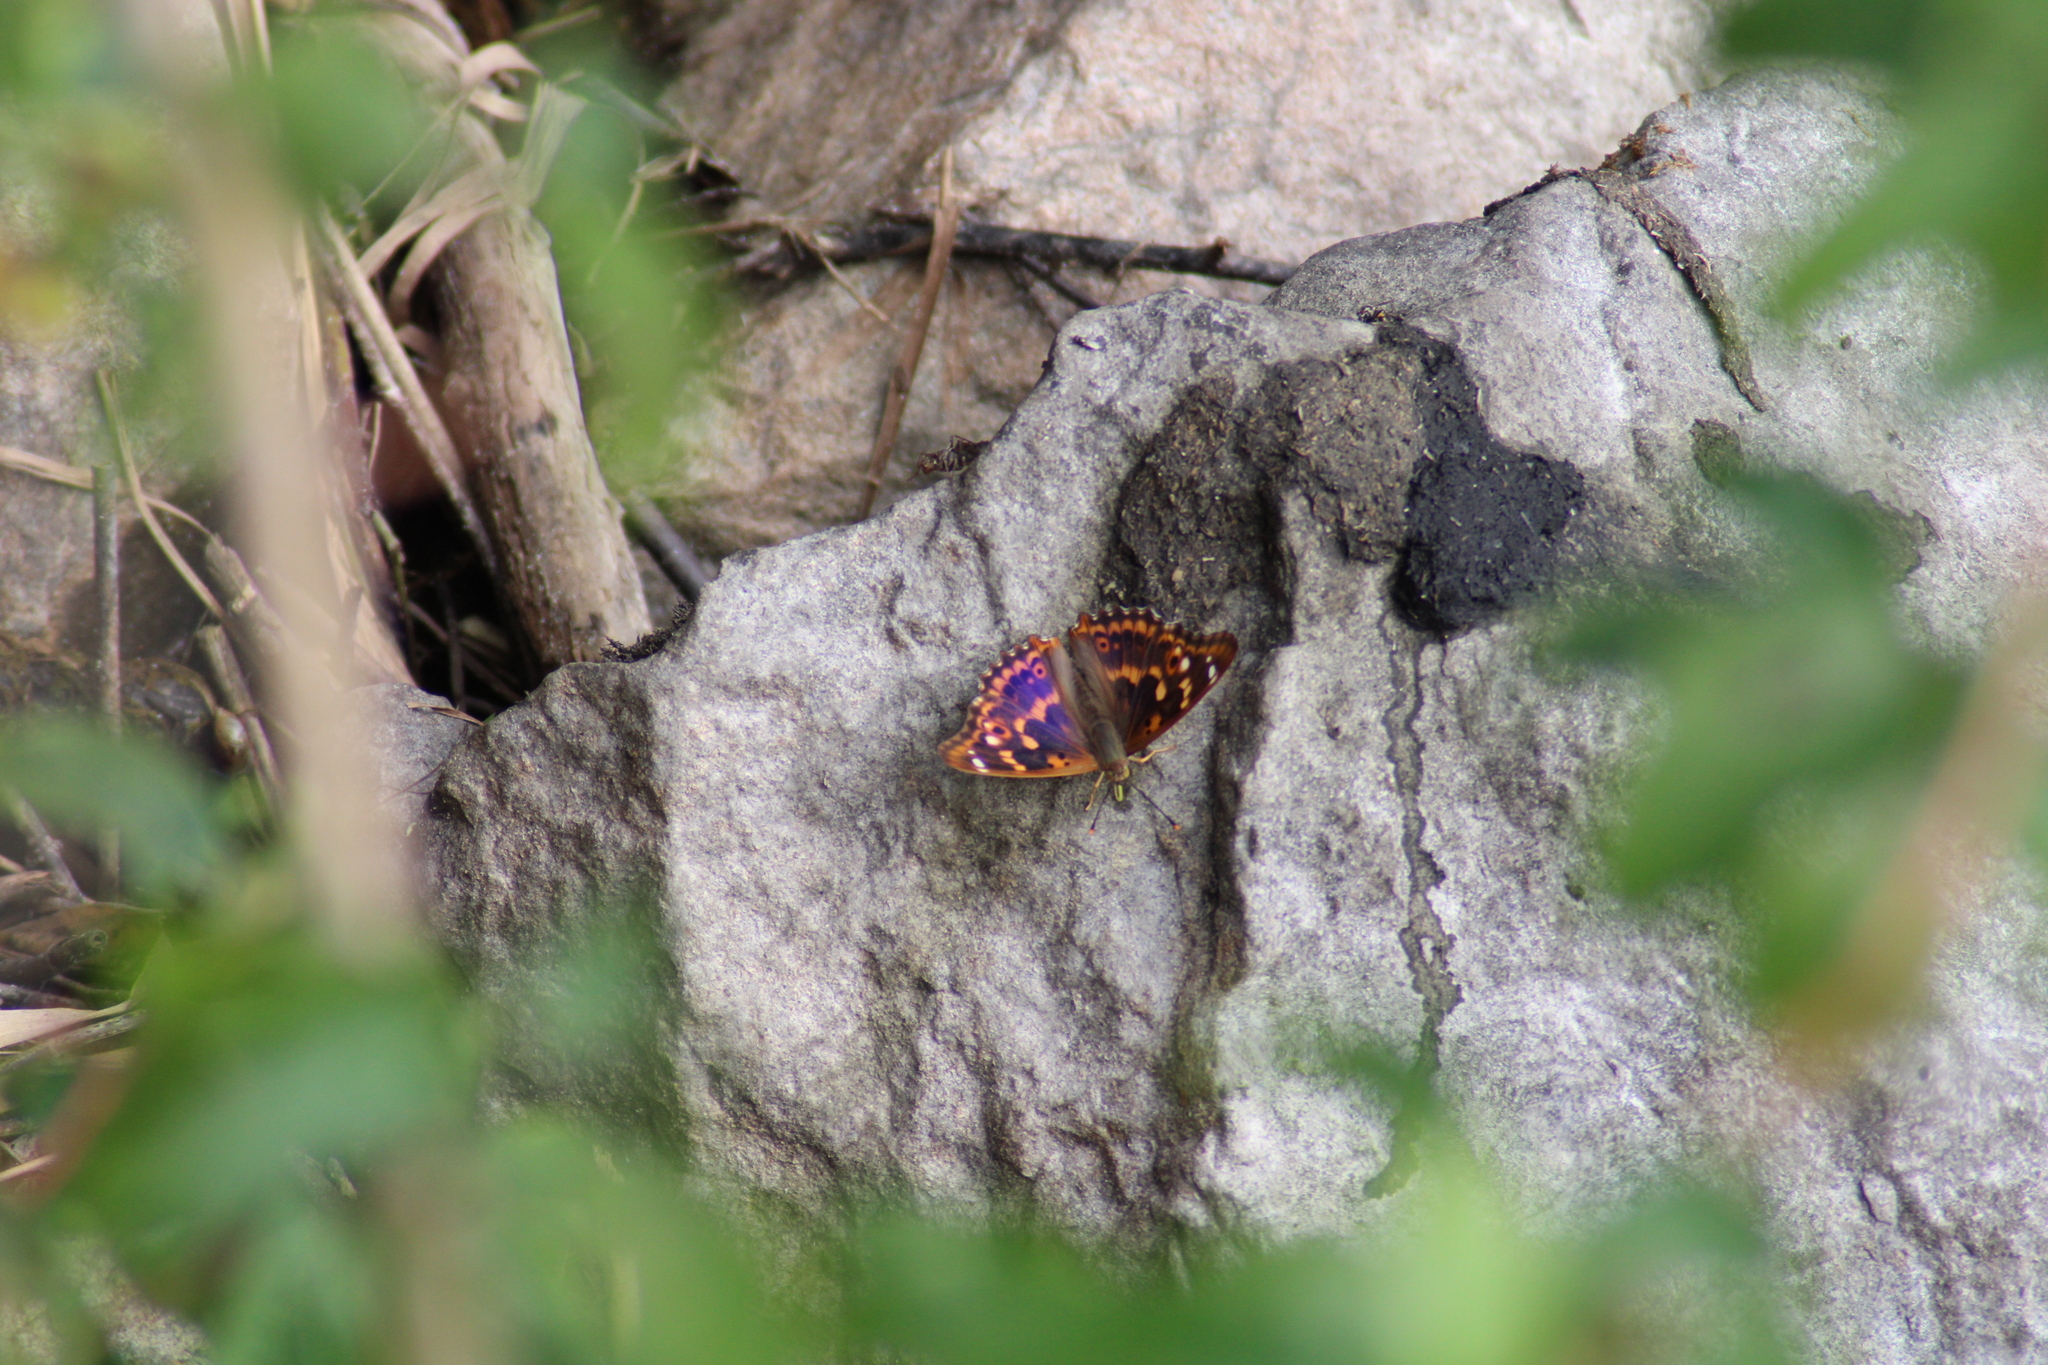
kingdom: Animalia
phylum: Arthropoda
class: Insecta
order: Lepidoptera
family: Nymphalidae
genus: Apatura
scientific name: Apatura ilia
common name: Lesser purple emperor
